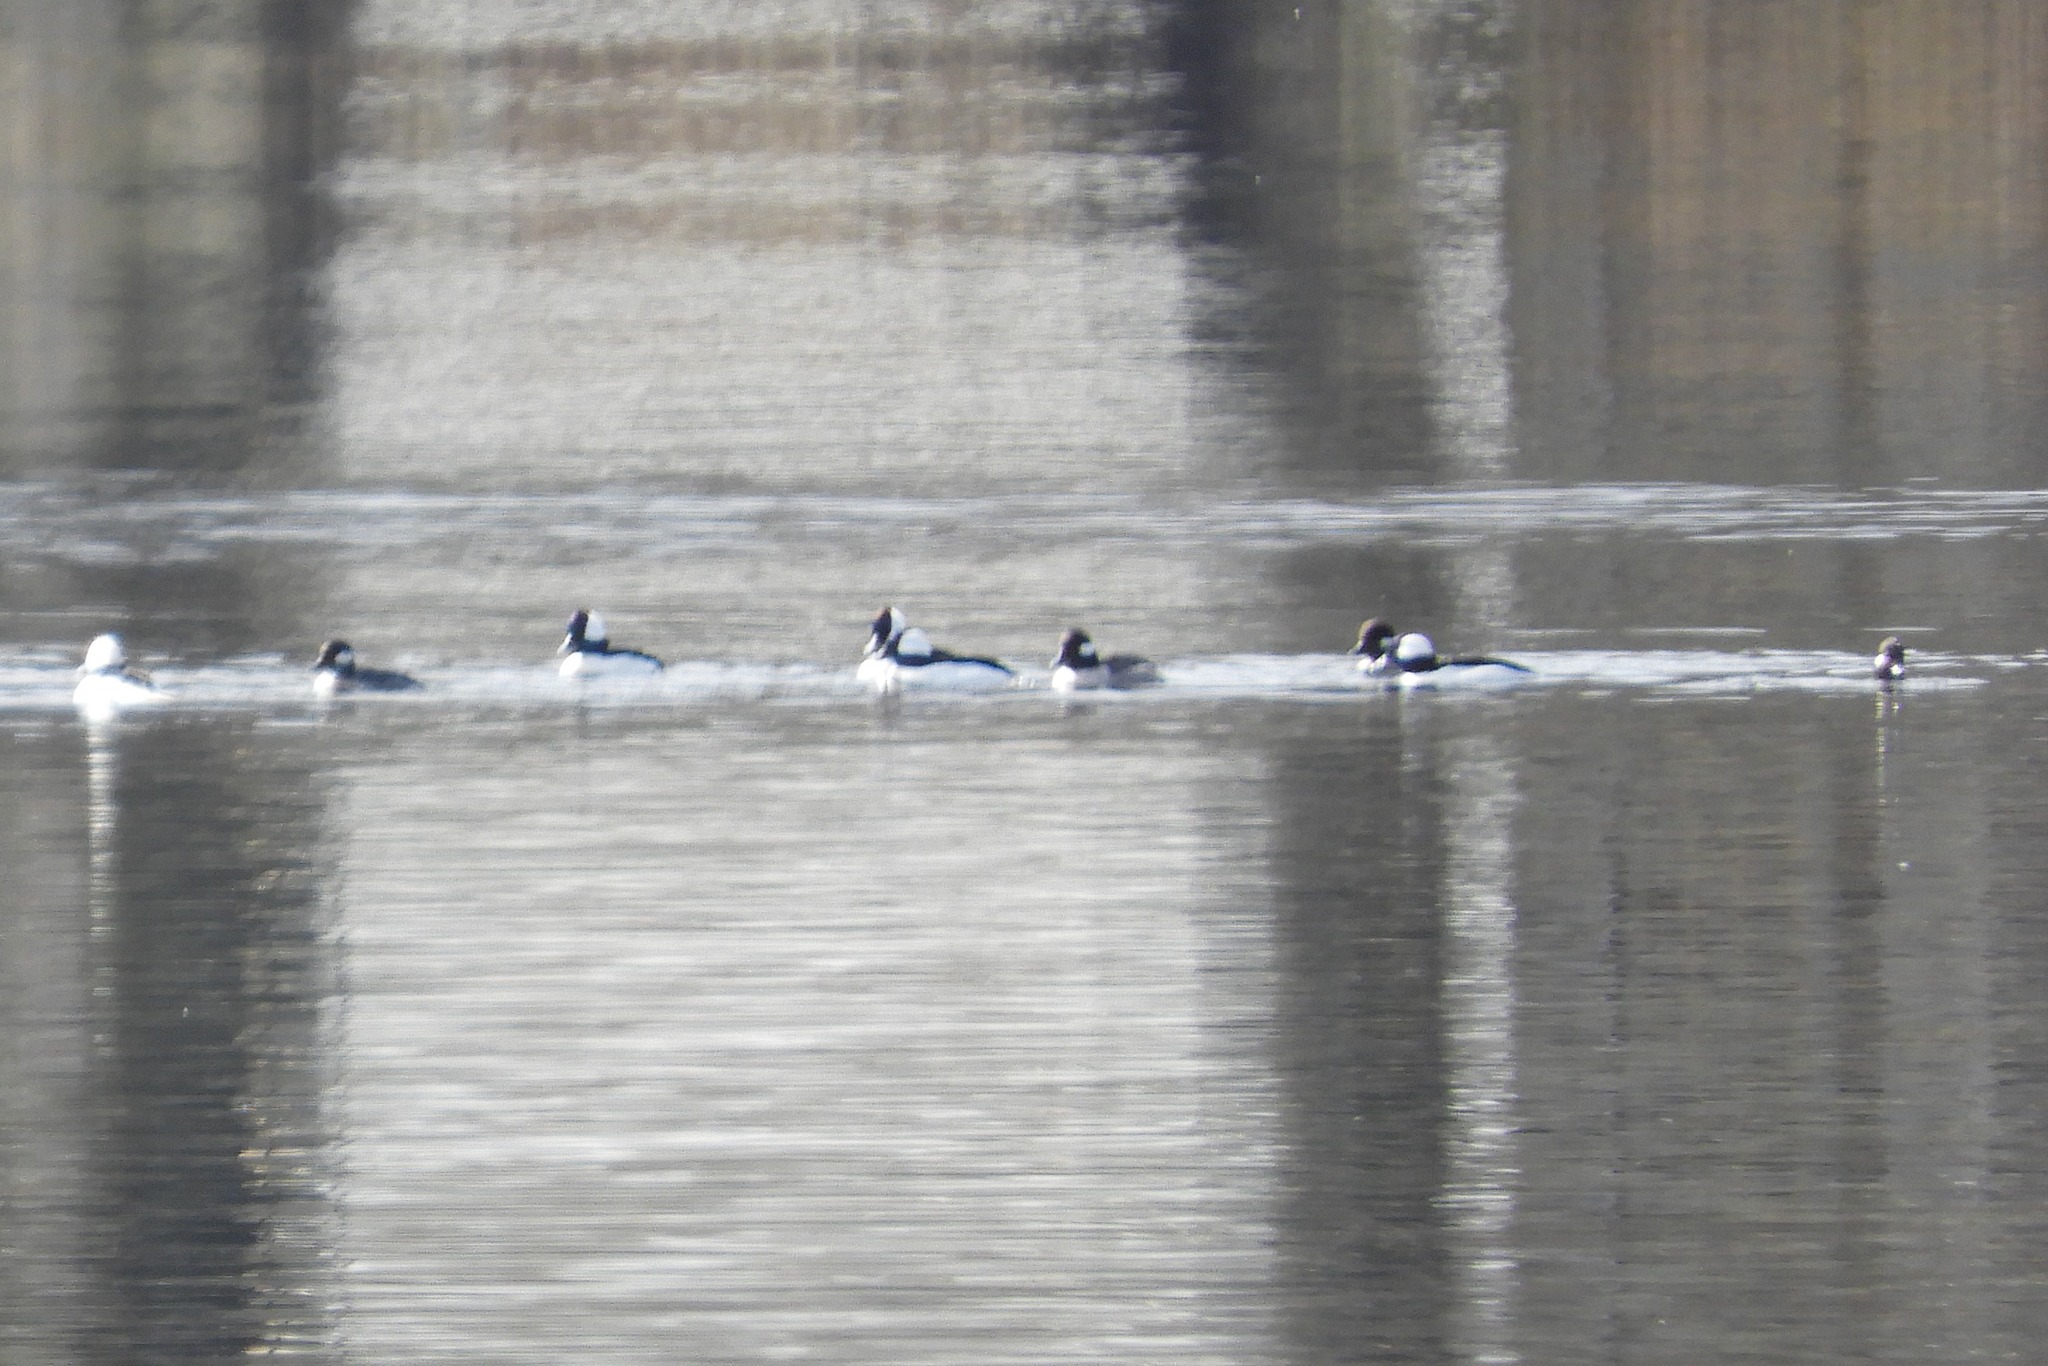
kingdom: Animalia
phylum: Chordata
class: Aves
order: Anseriformes
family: Anatidae
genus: Bucephala
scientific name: Bucephala albeola
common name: Bufflehead
